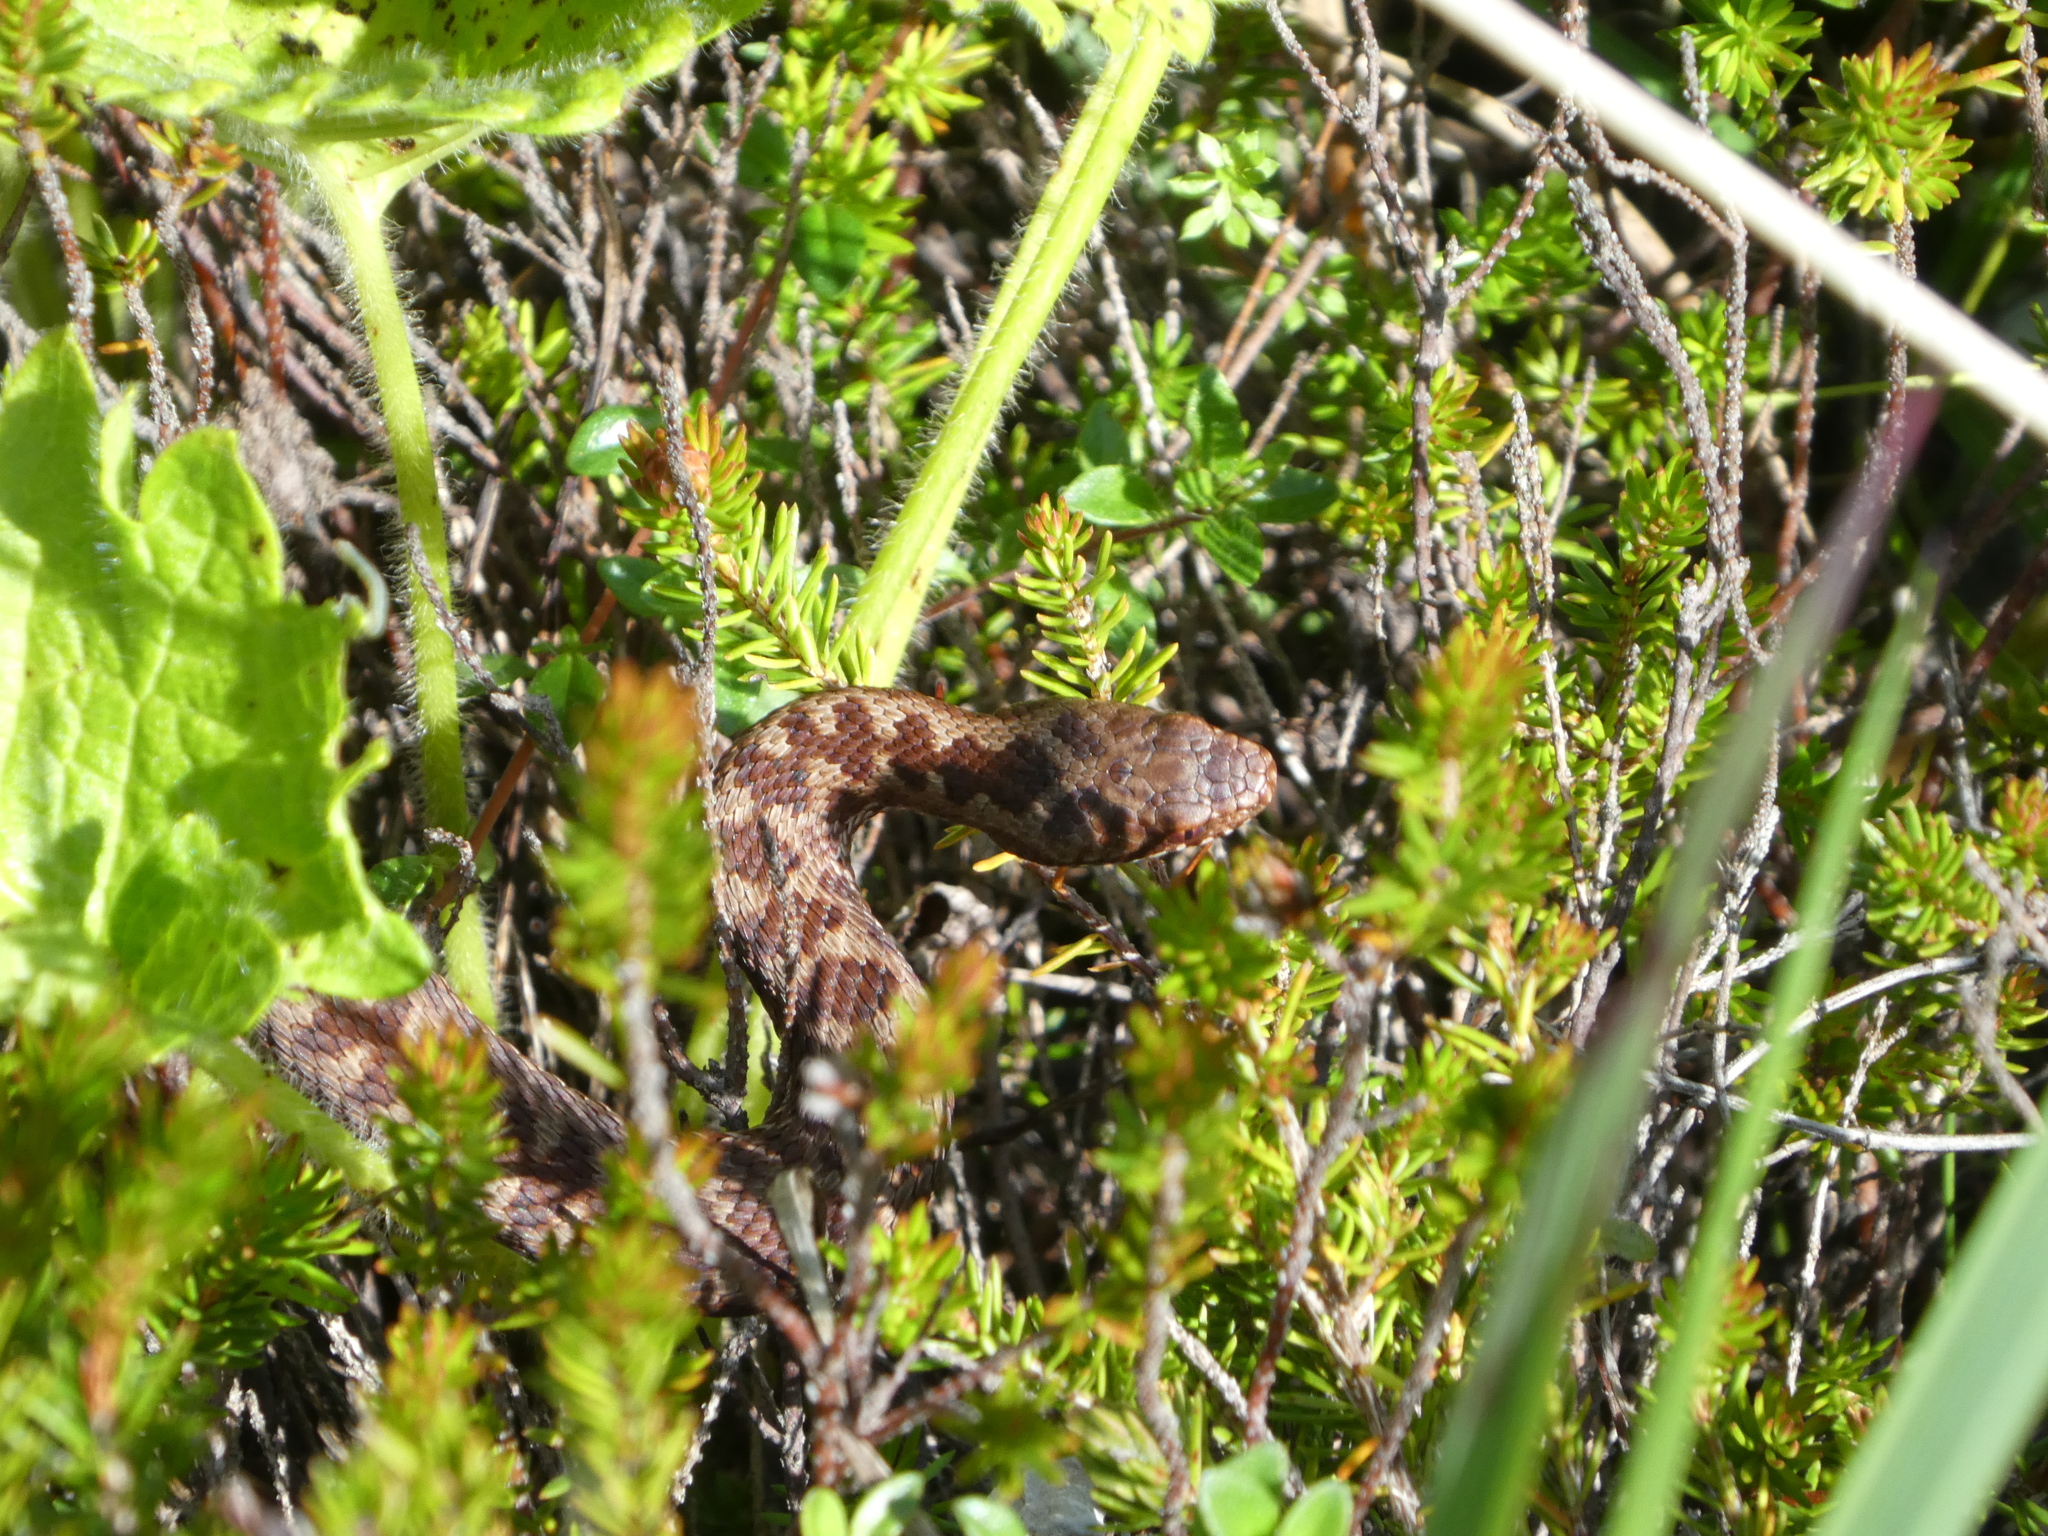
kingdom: Animalia
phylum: Chordata
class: Squamata
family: Viperidae
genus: Vipera
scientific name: Vipera berus
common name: Adder
